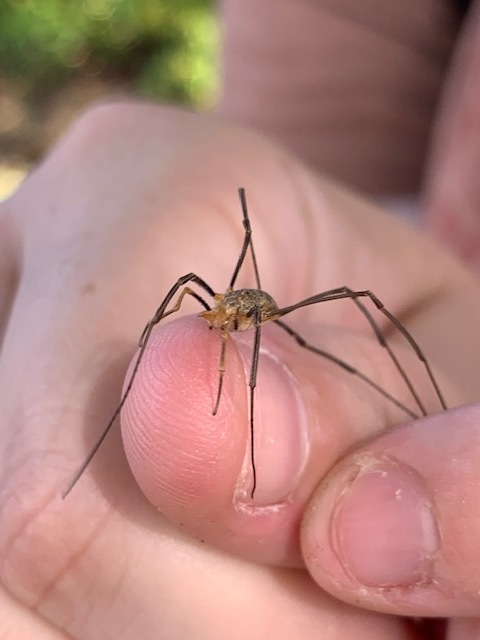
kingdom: Animalia
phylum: Arthropoda
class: Arachnida
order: Opiliones
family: Phalangiidae
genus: Phalangium
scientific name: Phalangium opilio
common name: Daddy longleg
